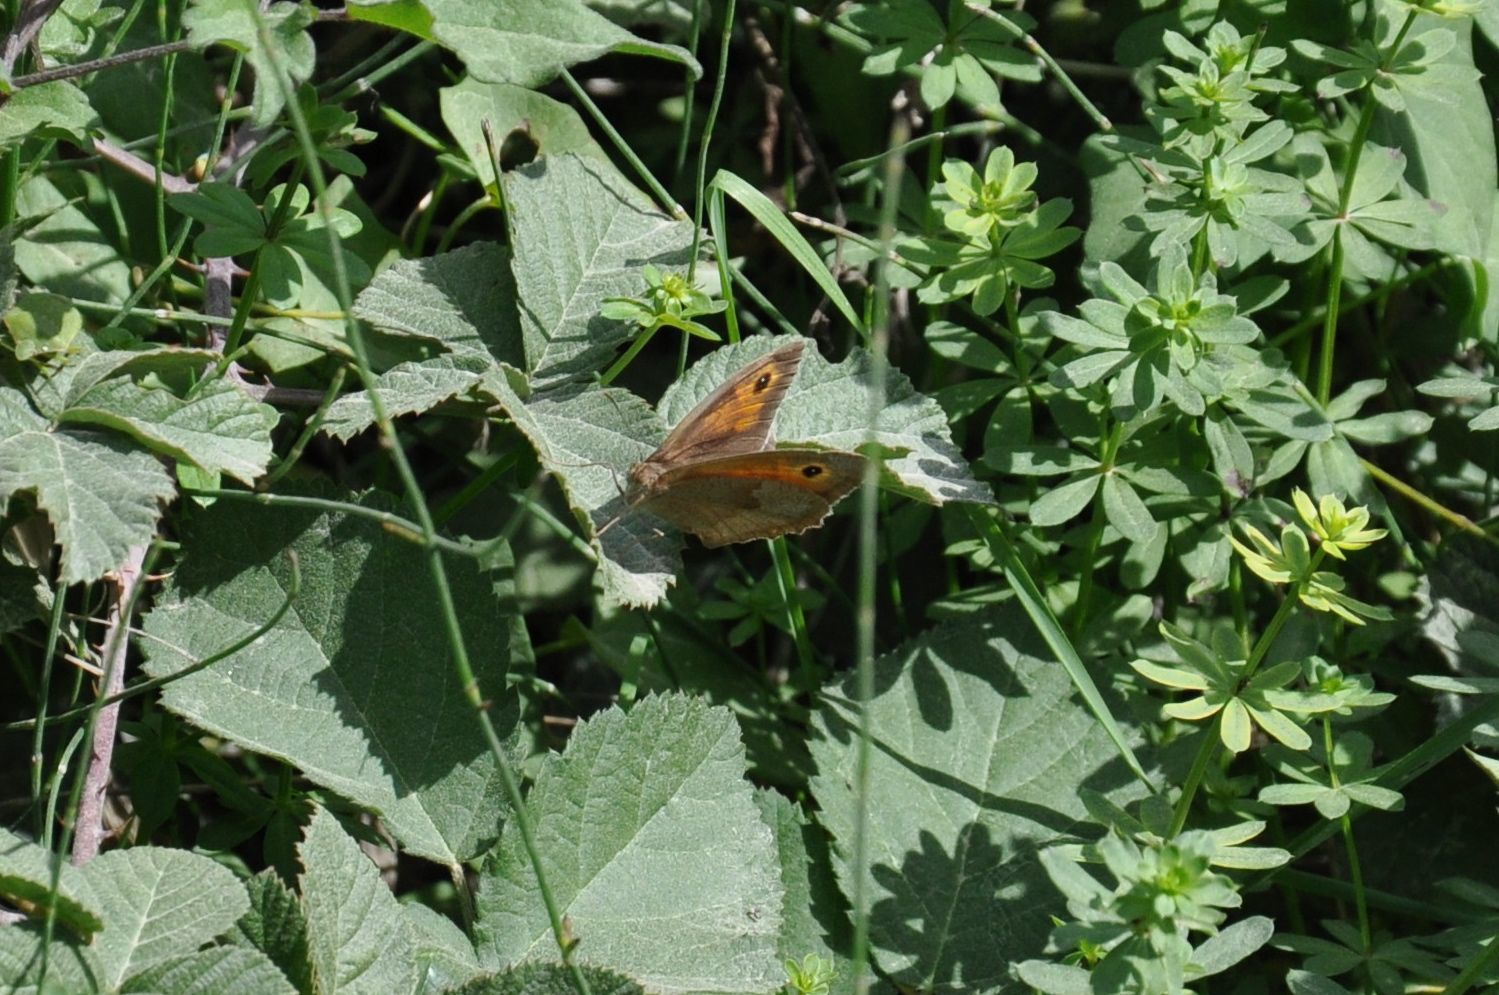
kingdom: Animalia
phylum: Arthropoda
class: Insecta
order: Lepidoptera
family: Nymphalidae
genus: Maniola
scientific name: Maniola jurtina
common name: Meadow brown
